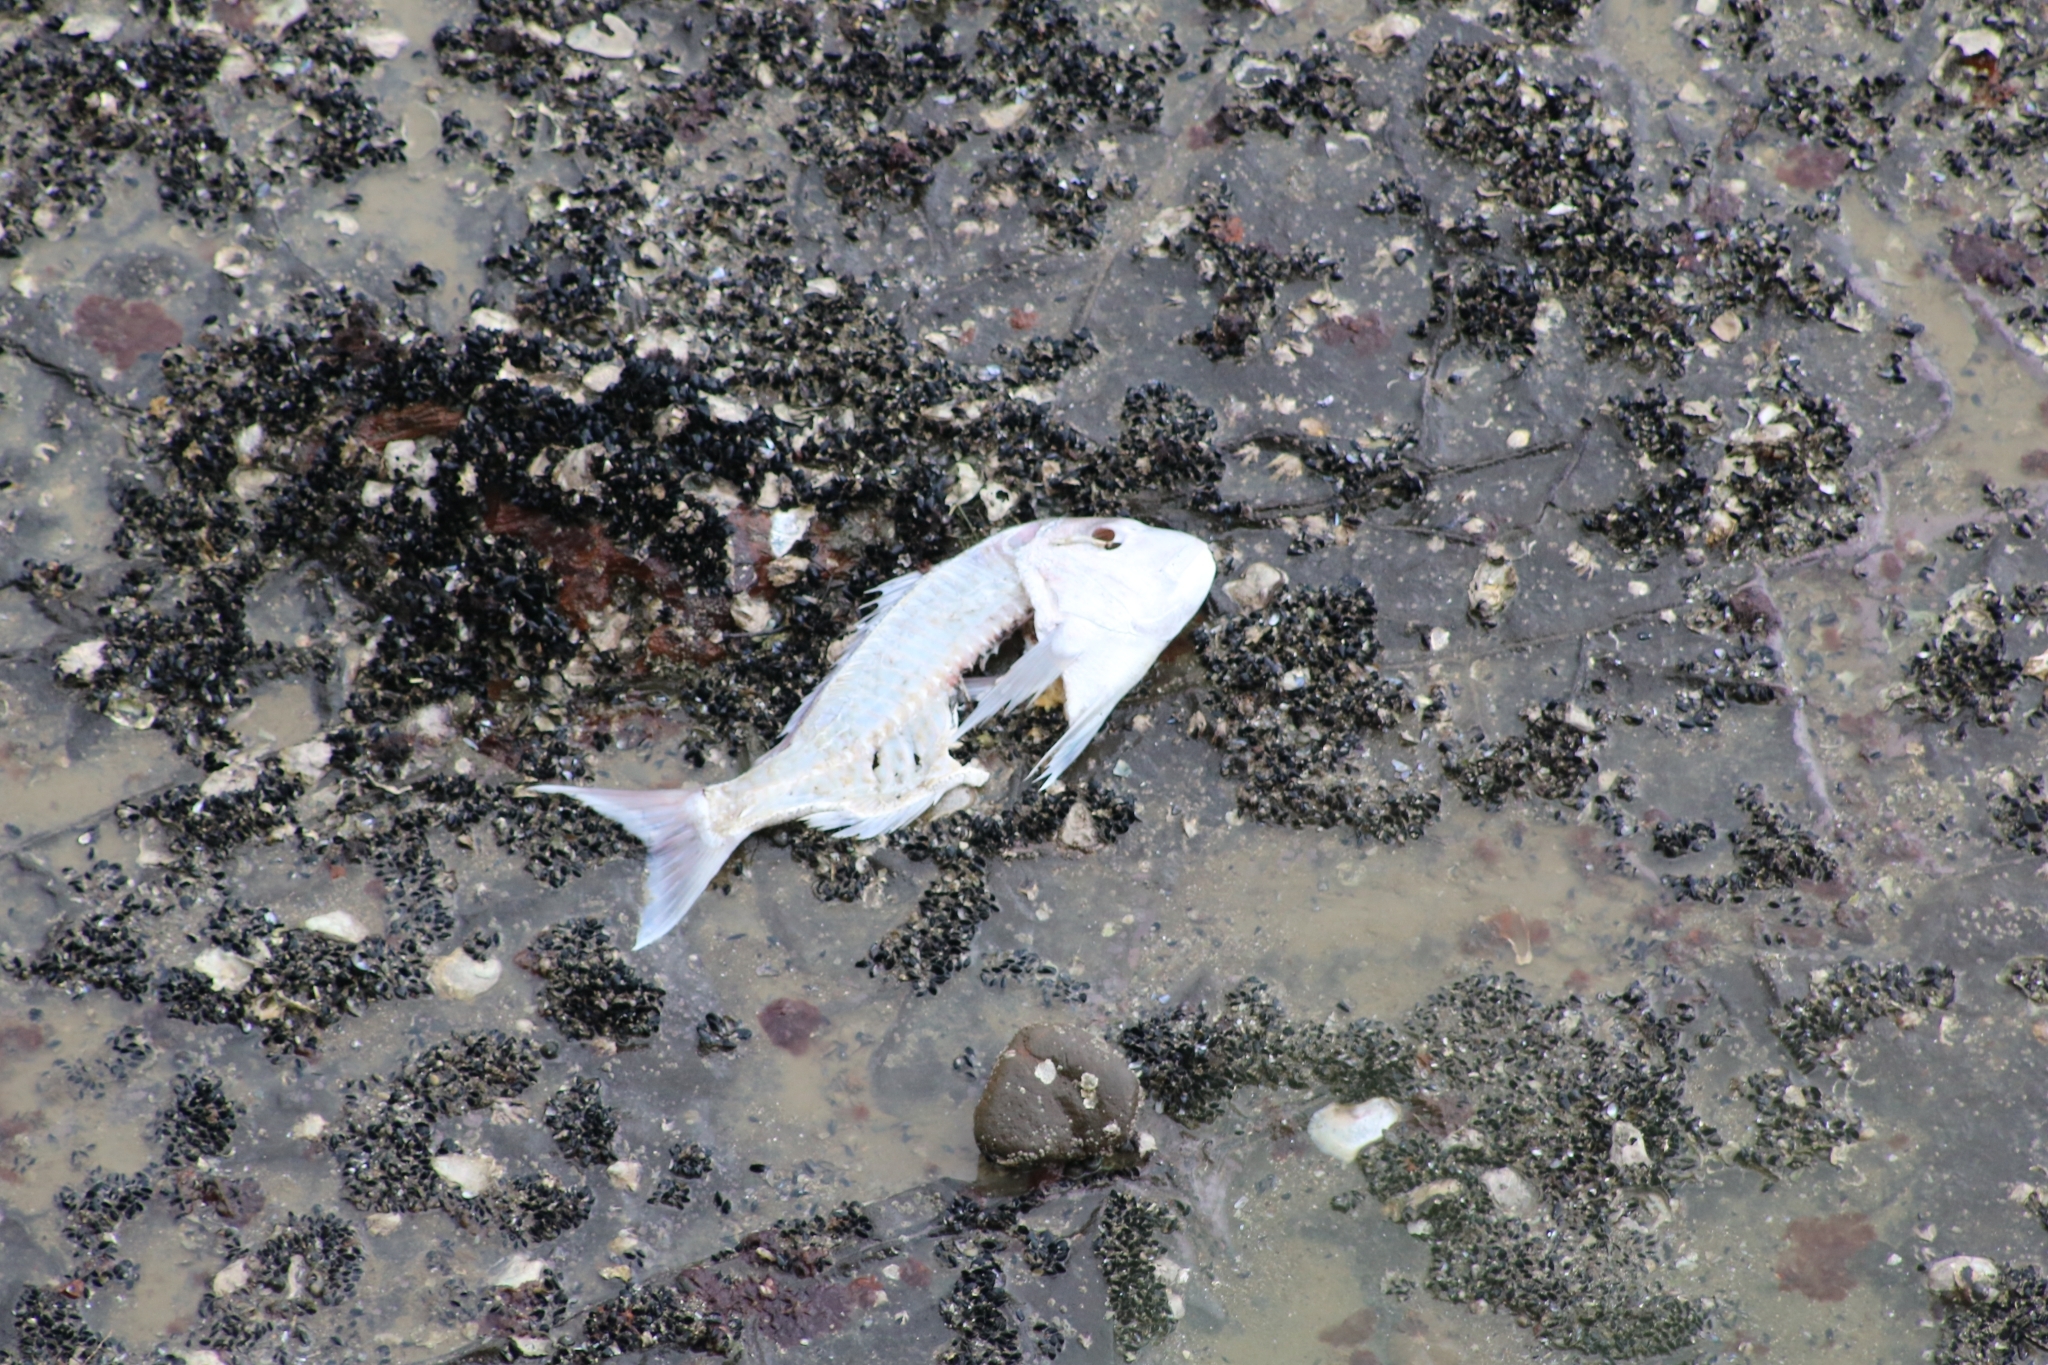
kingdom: Animalia
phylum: Chordata
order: Perciformes
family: Sparidae
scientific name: Sparidae
